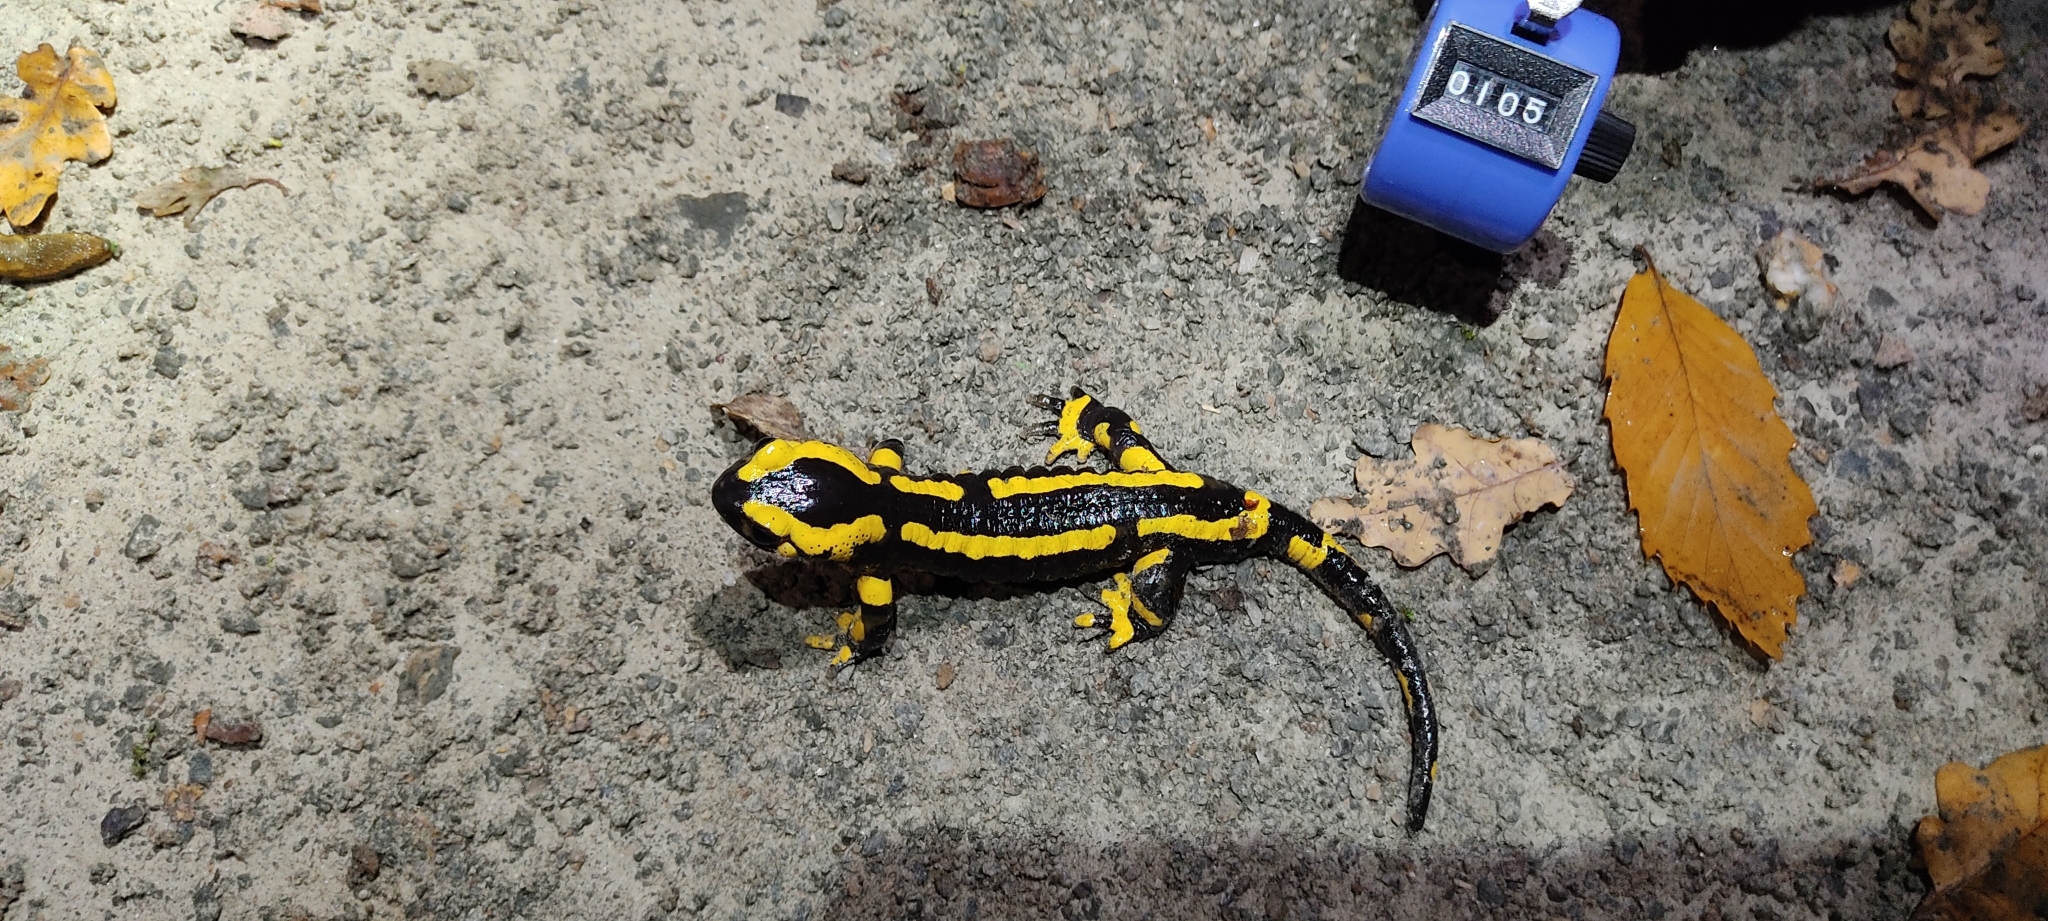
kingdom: Animalia
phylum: Chordata
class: Amphibia
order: Caudata
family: Salamandridae
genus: Salamandra
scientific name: Salamandra salamandra
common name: Fire salamander
